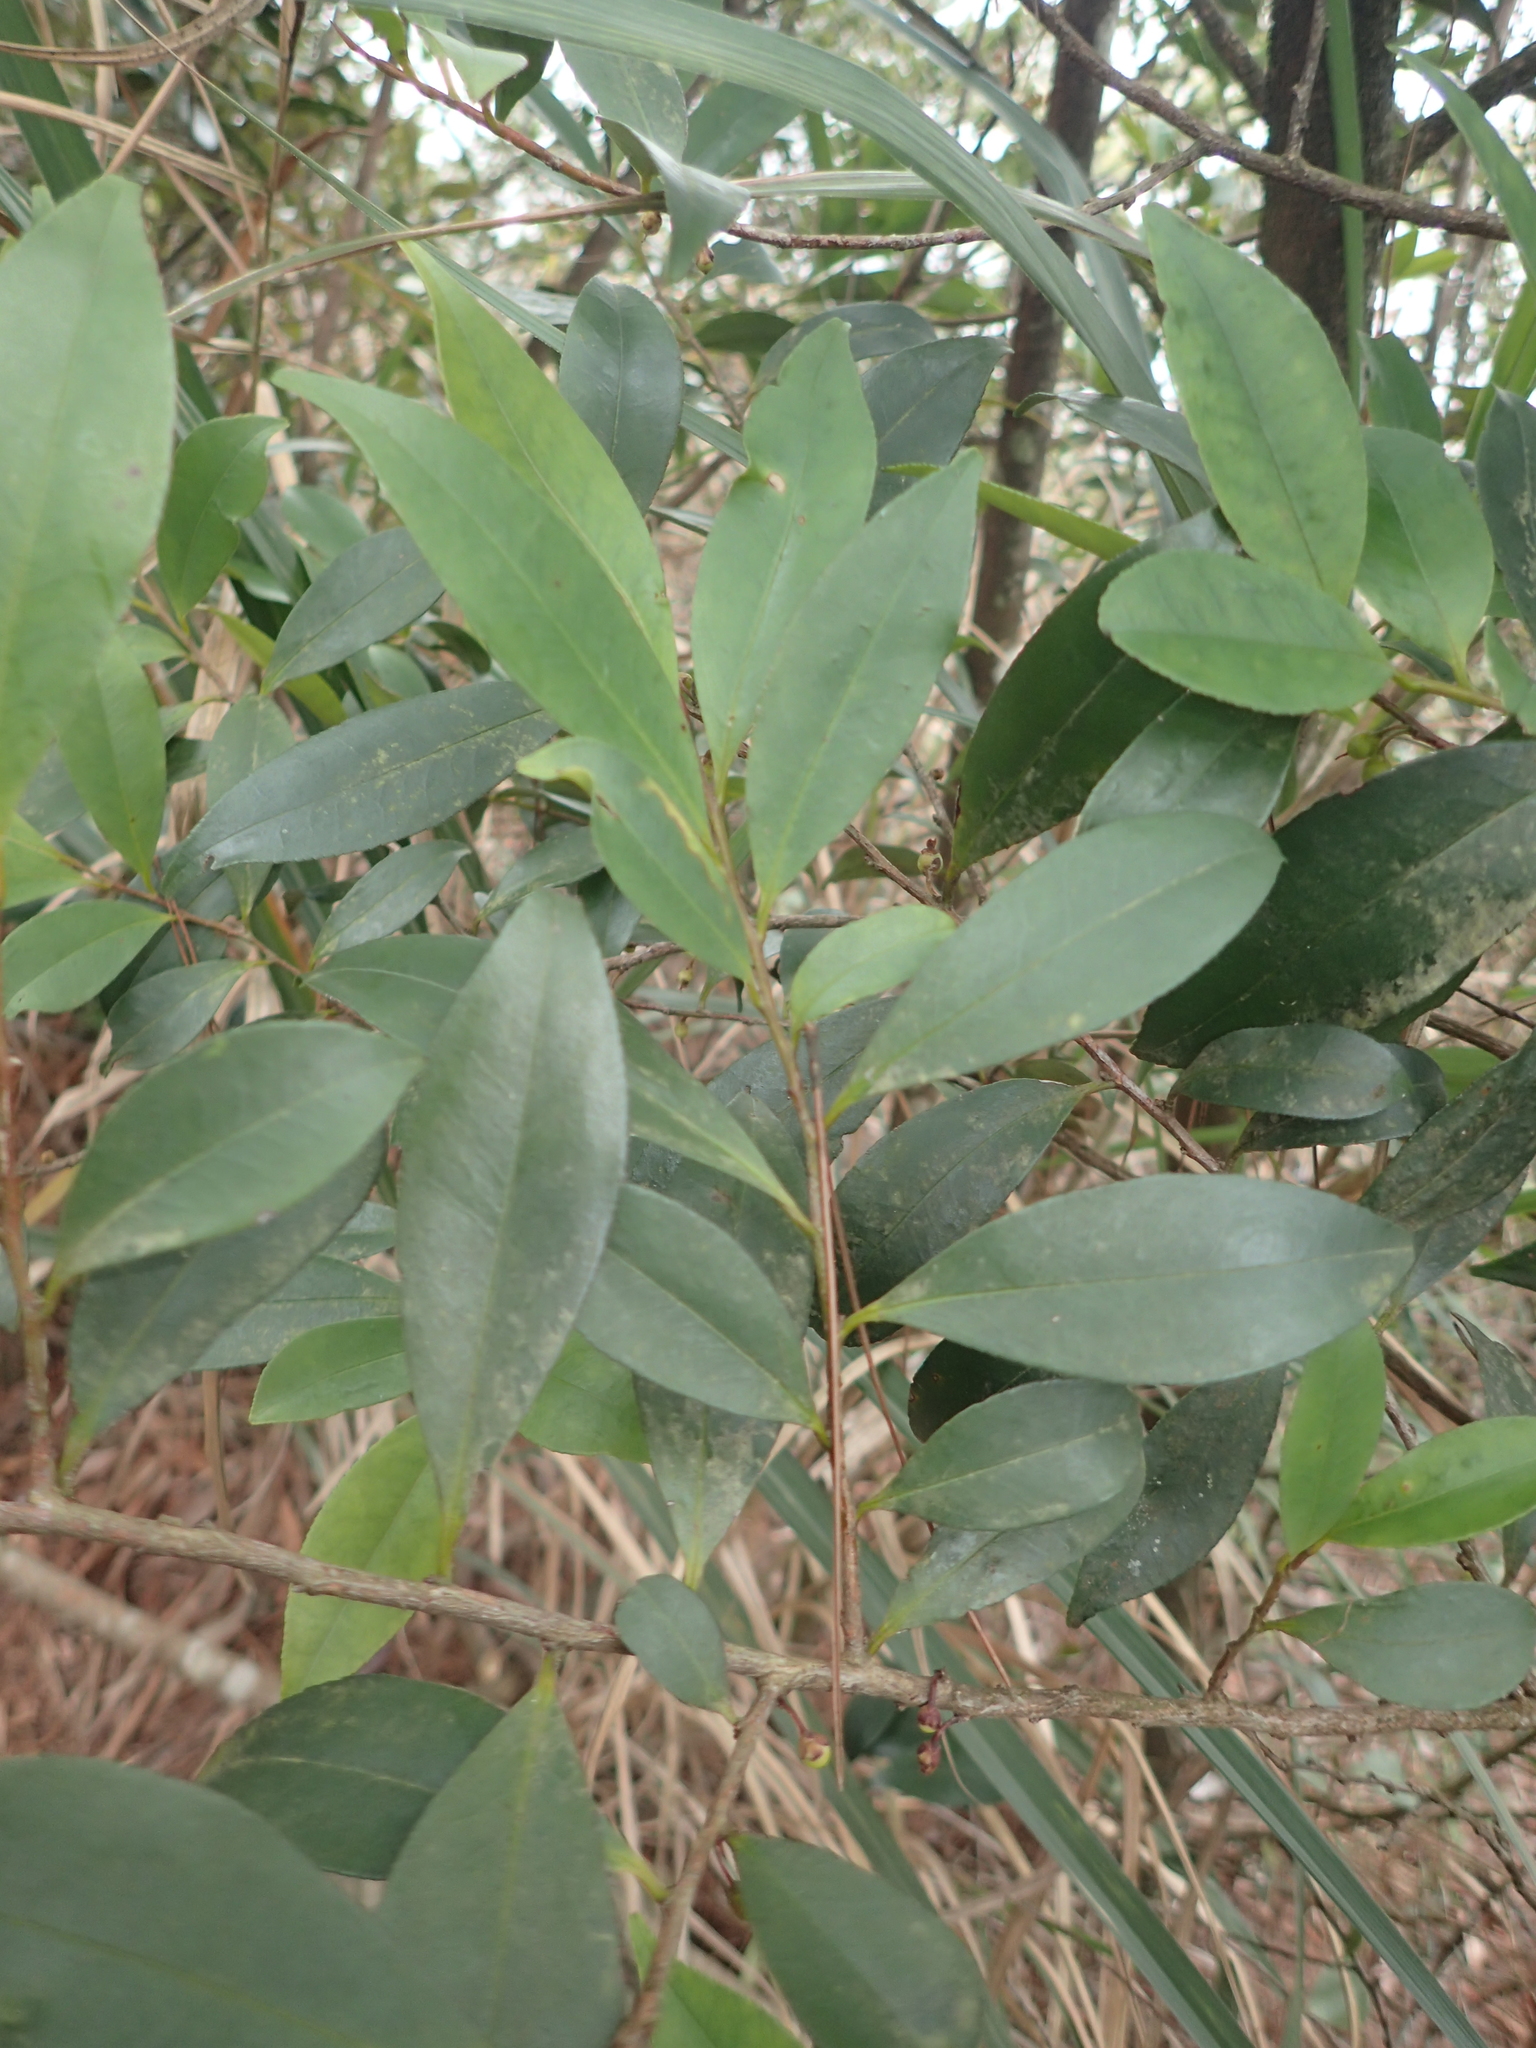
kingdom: Plantae
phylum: Tracheophyta
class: Magnoliopsida
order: Ericales
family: Pentaphylacaceae
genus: Eurya
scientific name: Eurya nitida
